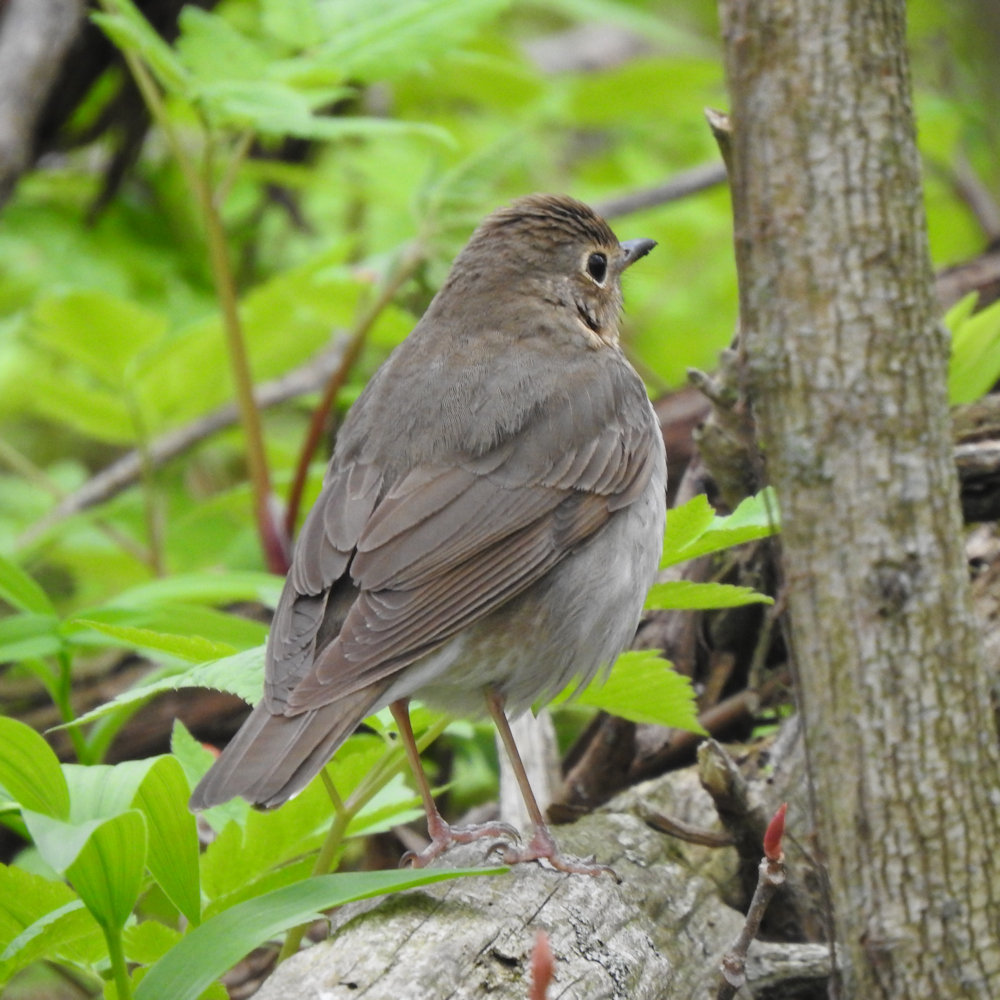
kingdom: Animalia
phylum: Chordata
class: Aves
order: Passeriformes
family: Turdidae
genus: Catharus
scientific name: Catharus ustulatus
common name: Swainson's thrush
